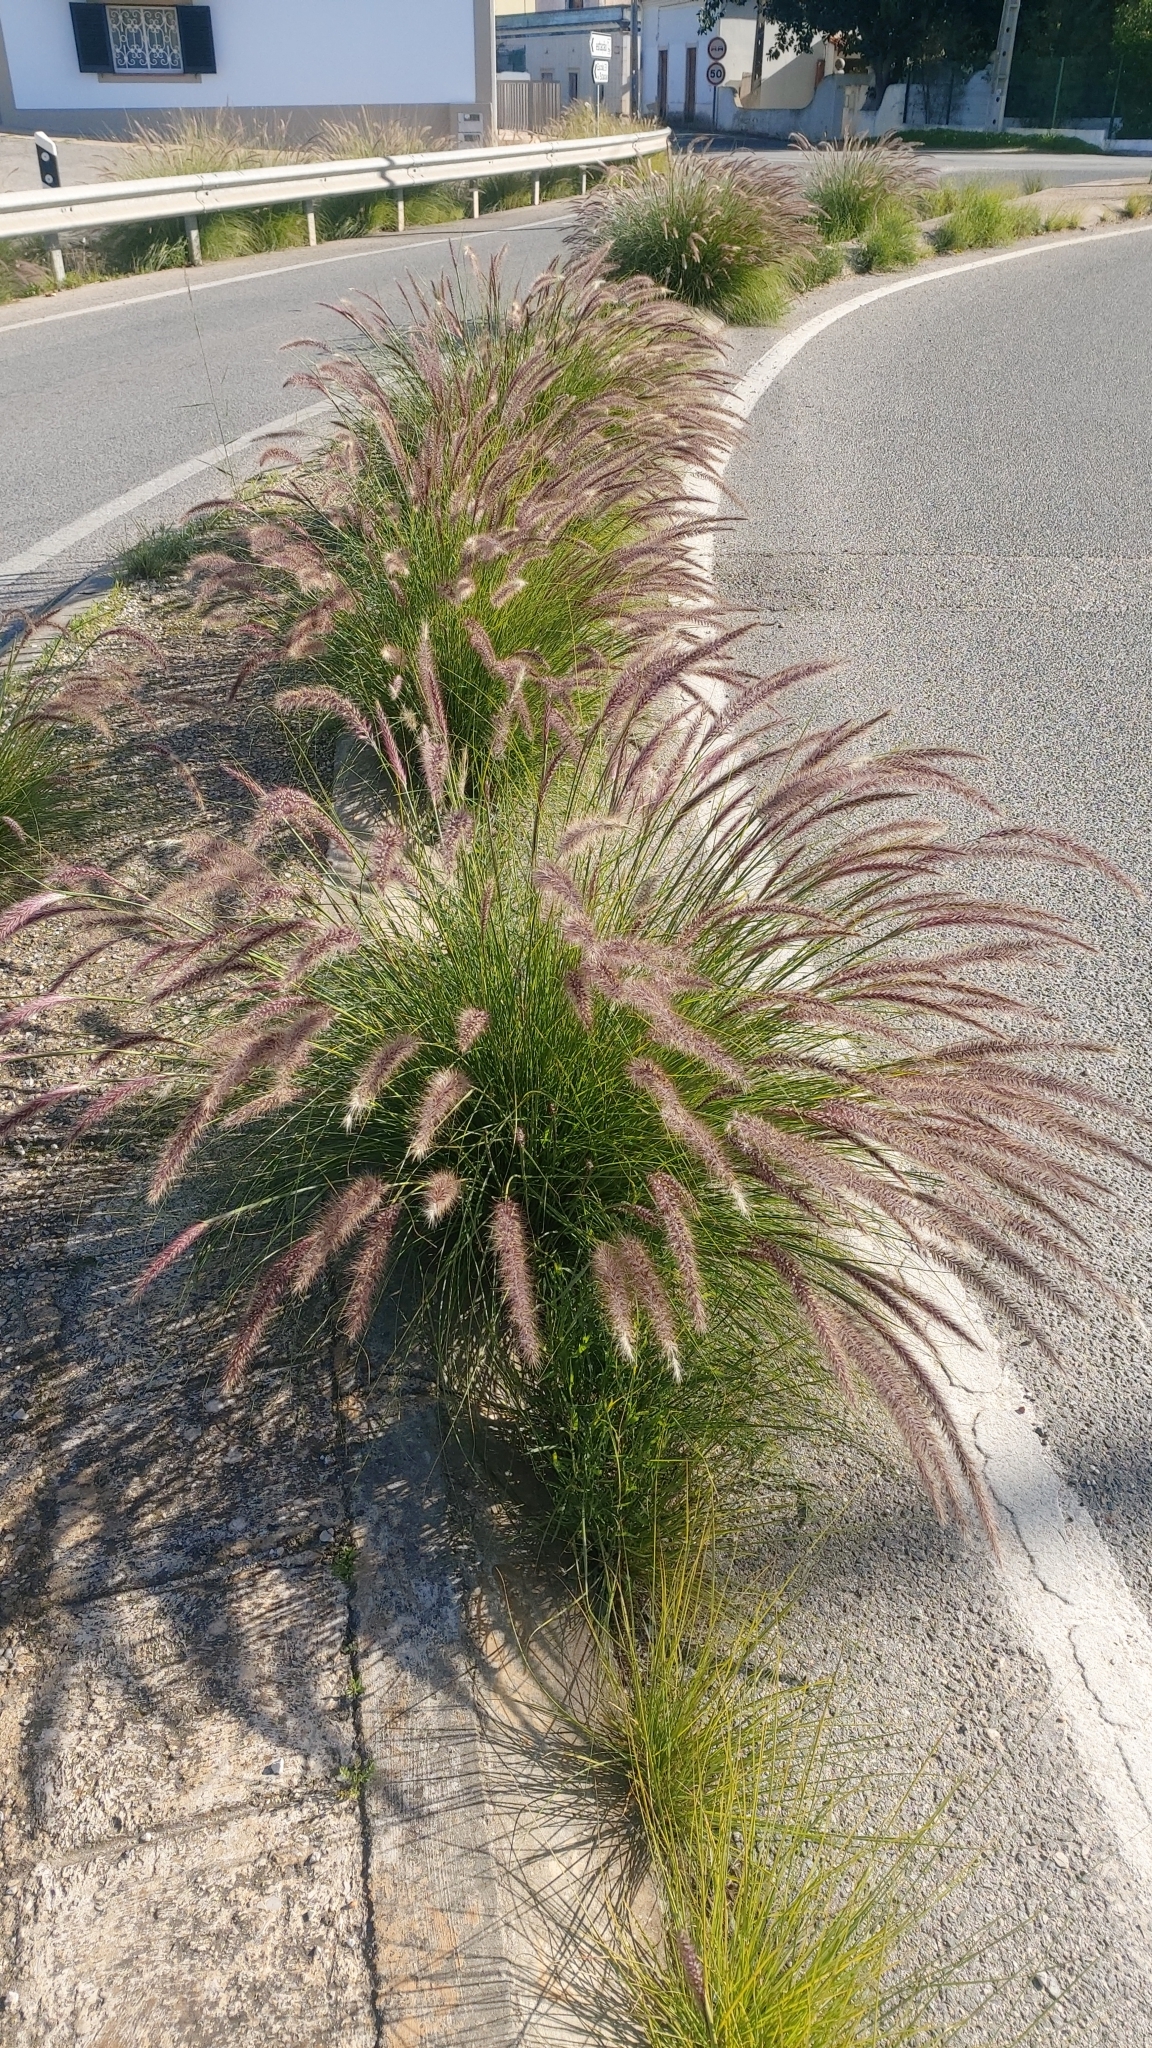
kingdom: Plantae
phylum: Tracheophyta
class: Liliopsida
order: Poales
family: Poaceae
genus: Cenchrus
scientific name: Cenchrus setaceus
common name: Crimson fountaingrass
